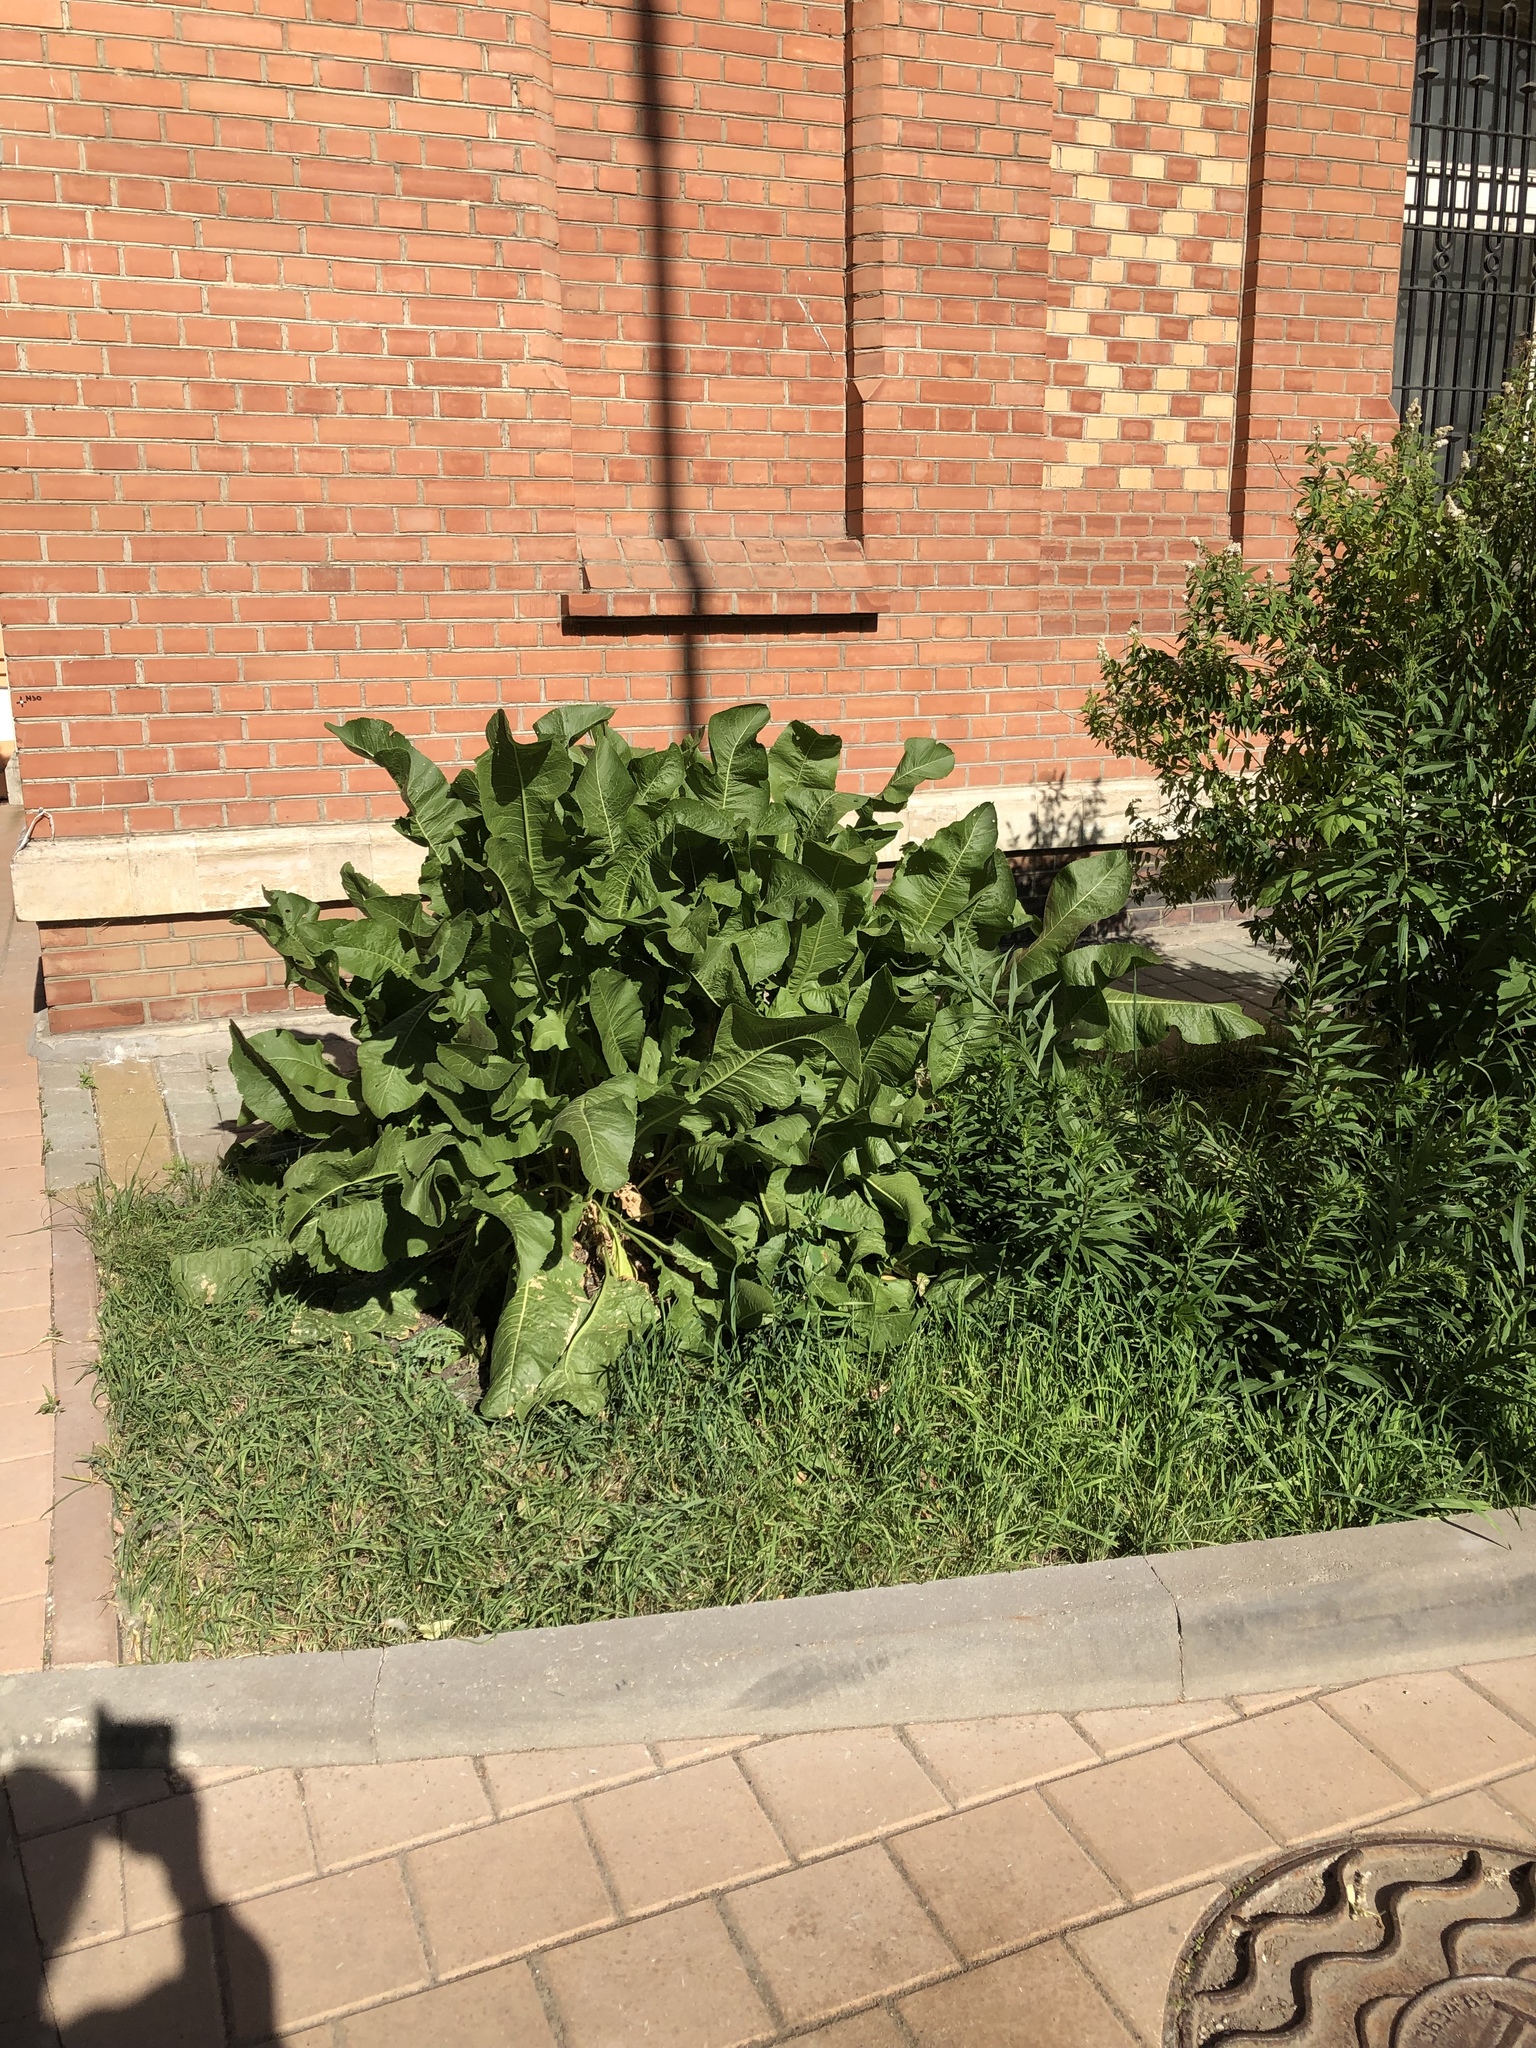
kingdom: Plantae
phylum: Tracheophyta
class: Magnoliopsida
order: Brassicales
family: Brassicaceae
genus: Armoracia
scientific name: Armoracia rusticana
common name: Horseradish
